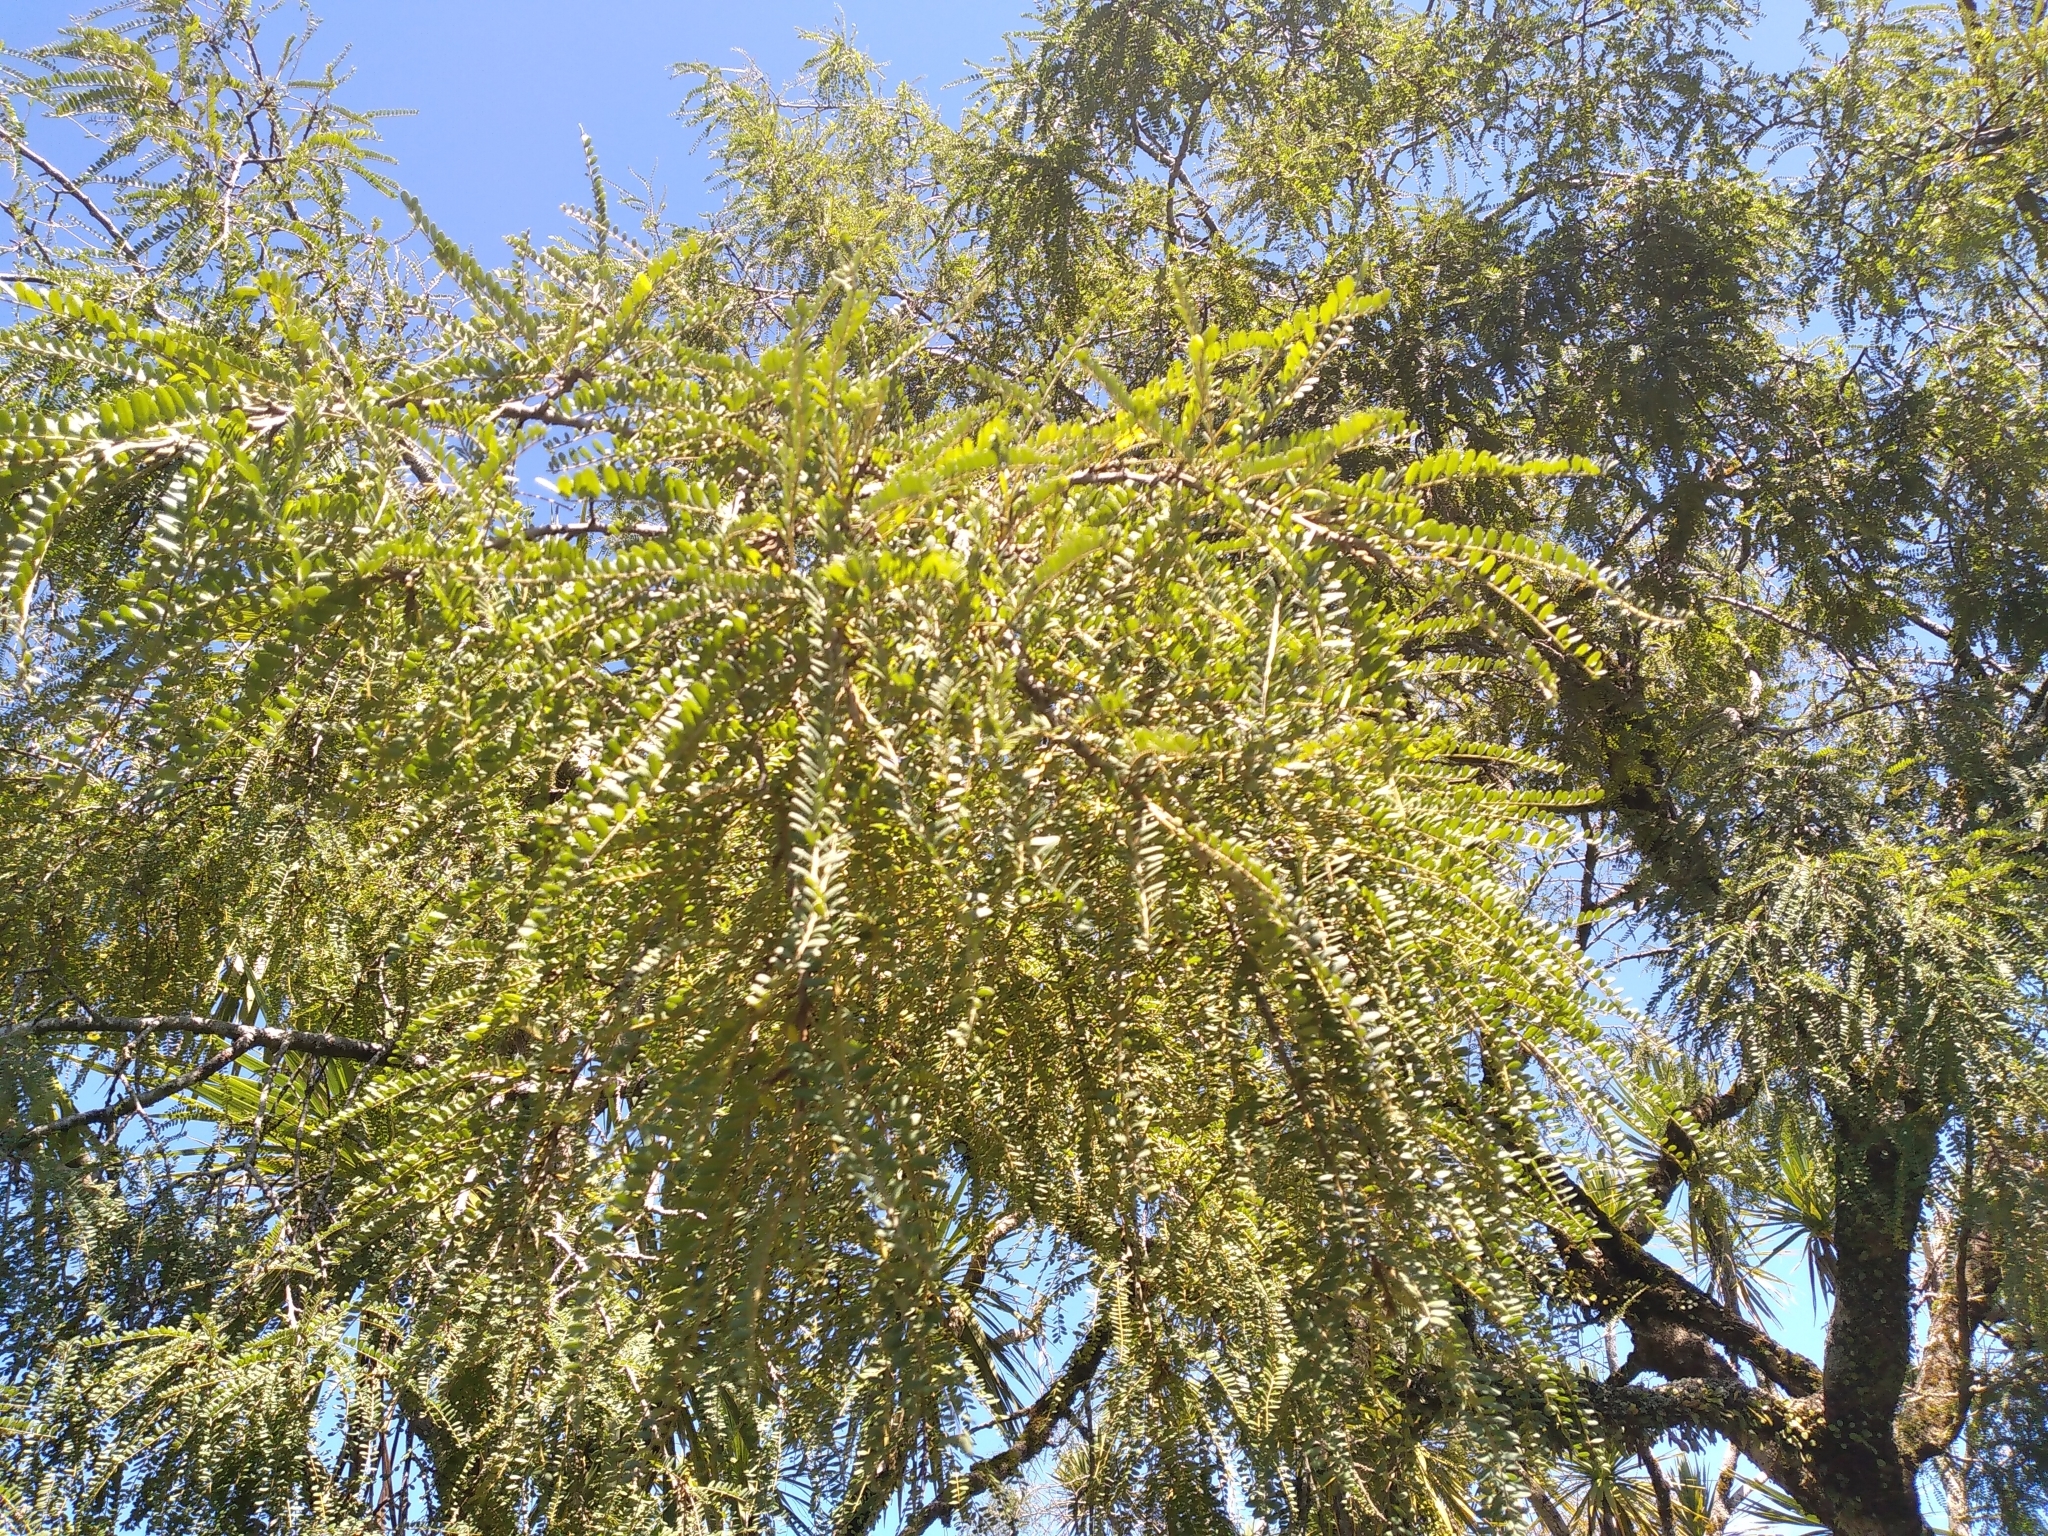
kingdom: Plantae
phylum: Tracheophyta
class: Magnoliopsida
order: Fabales
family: Fabaceae
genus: Sophora
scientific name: Sophora microphylla
